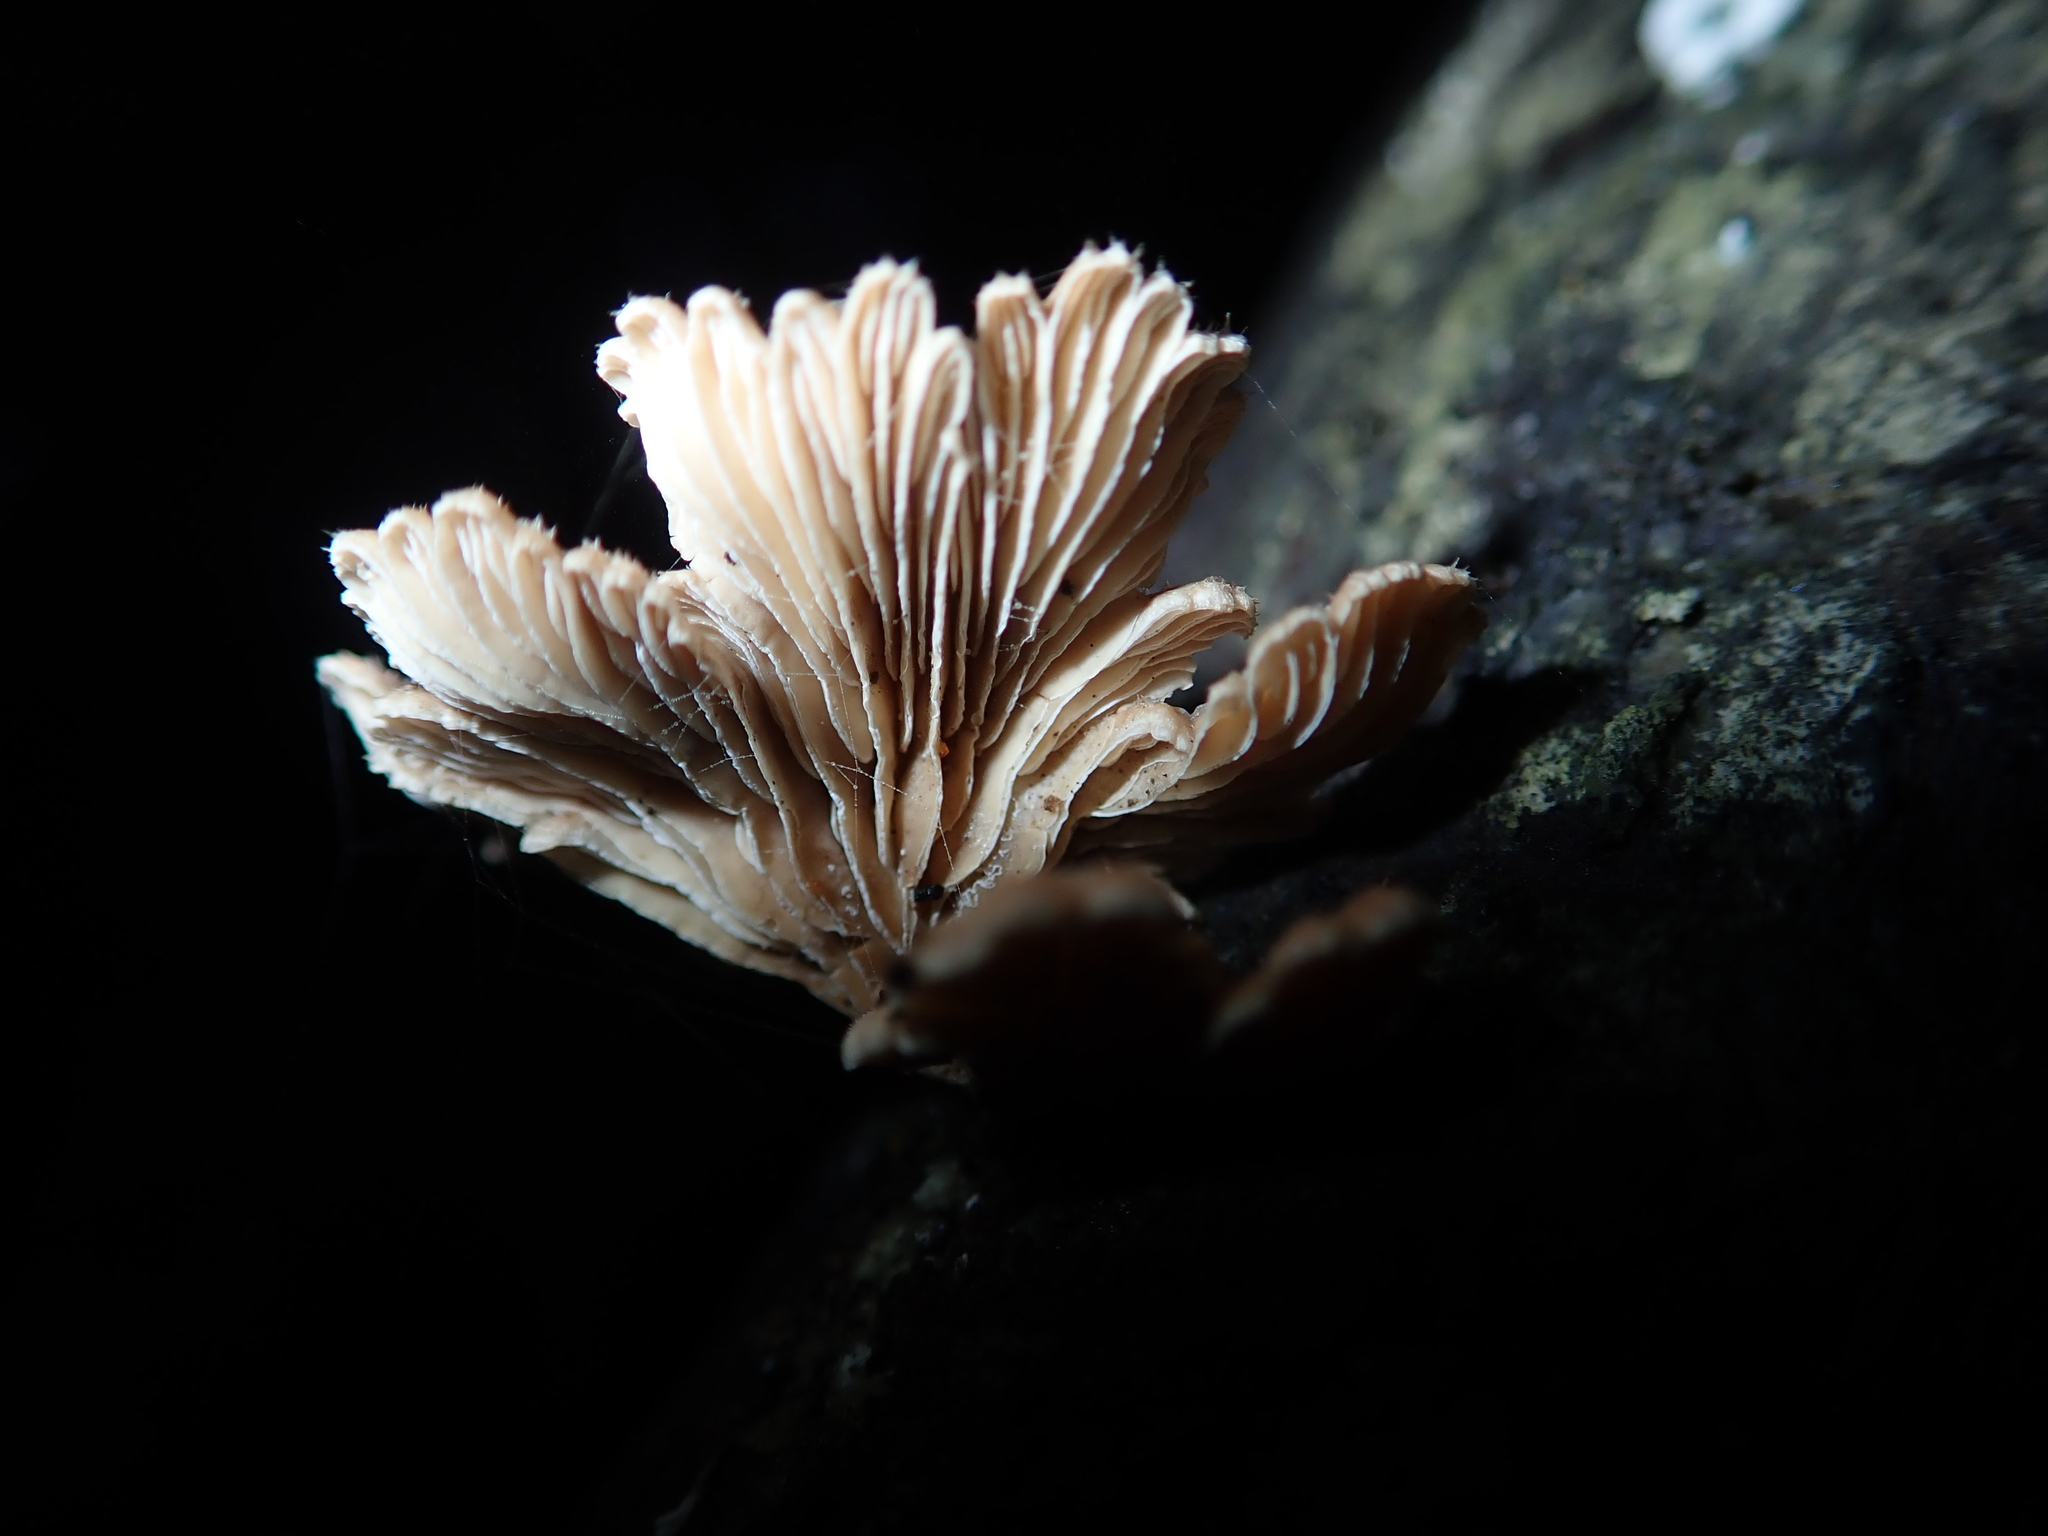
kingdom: Fungi
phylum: Basidiomycota
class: Agaricomycetes
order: Agaricales
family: Schizophyllaceae
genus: Schizophyllum
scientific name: Schizophyllum commune
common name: Common porecrust
